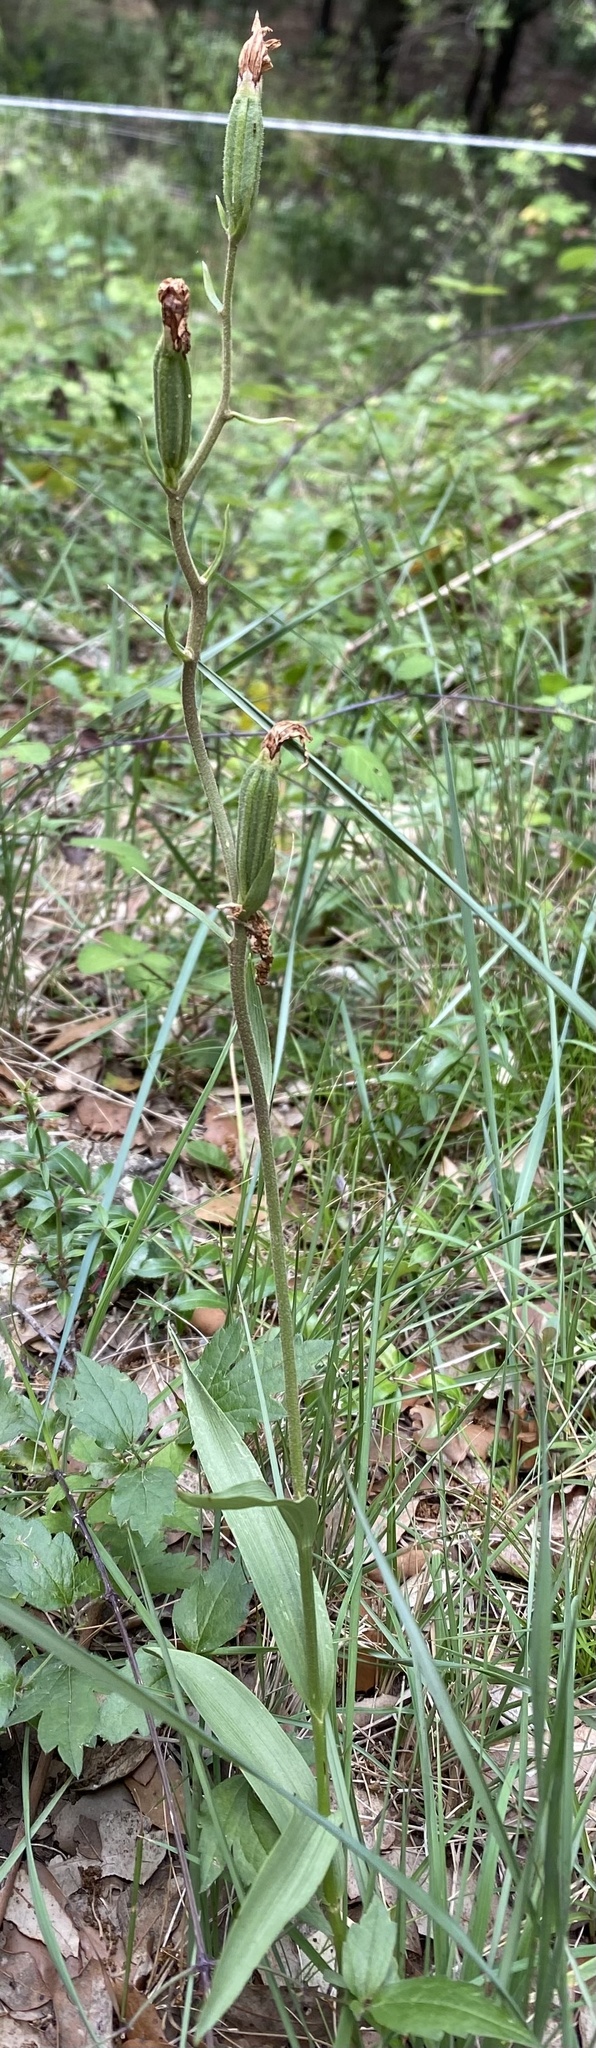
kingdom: Plantae
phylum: Tracheophyta
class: Liliopsida
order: Asparagales
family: Orchidaceae
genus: Cephalanthera
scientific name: Cephalanthera rubra
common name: Red helleborine
